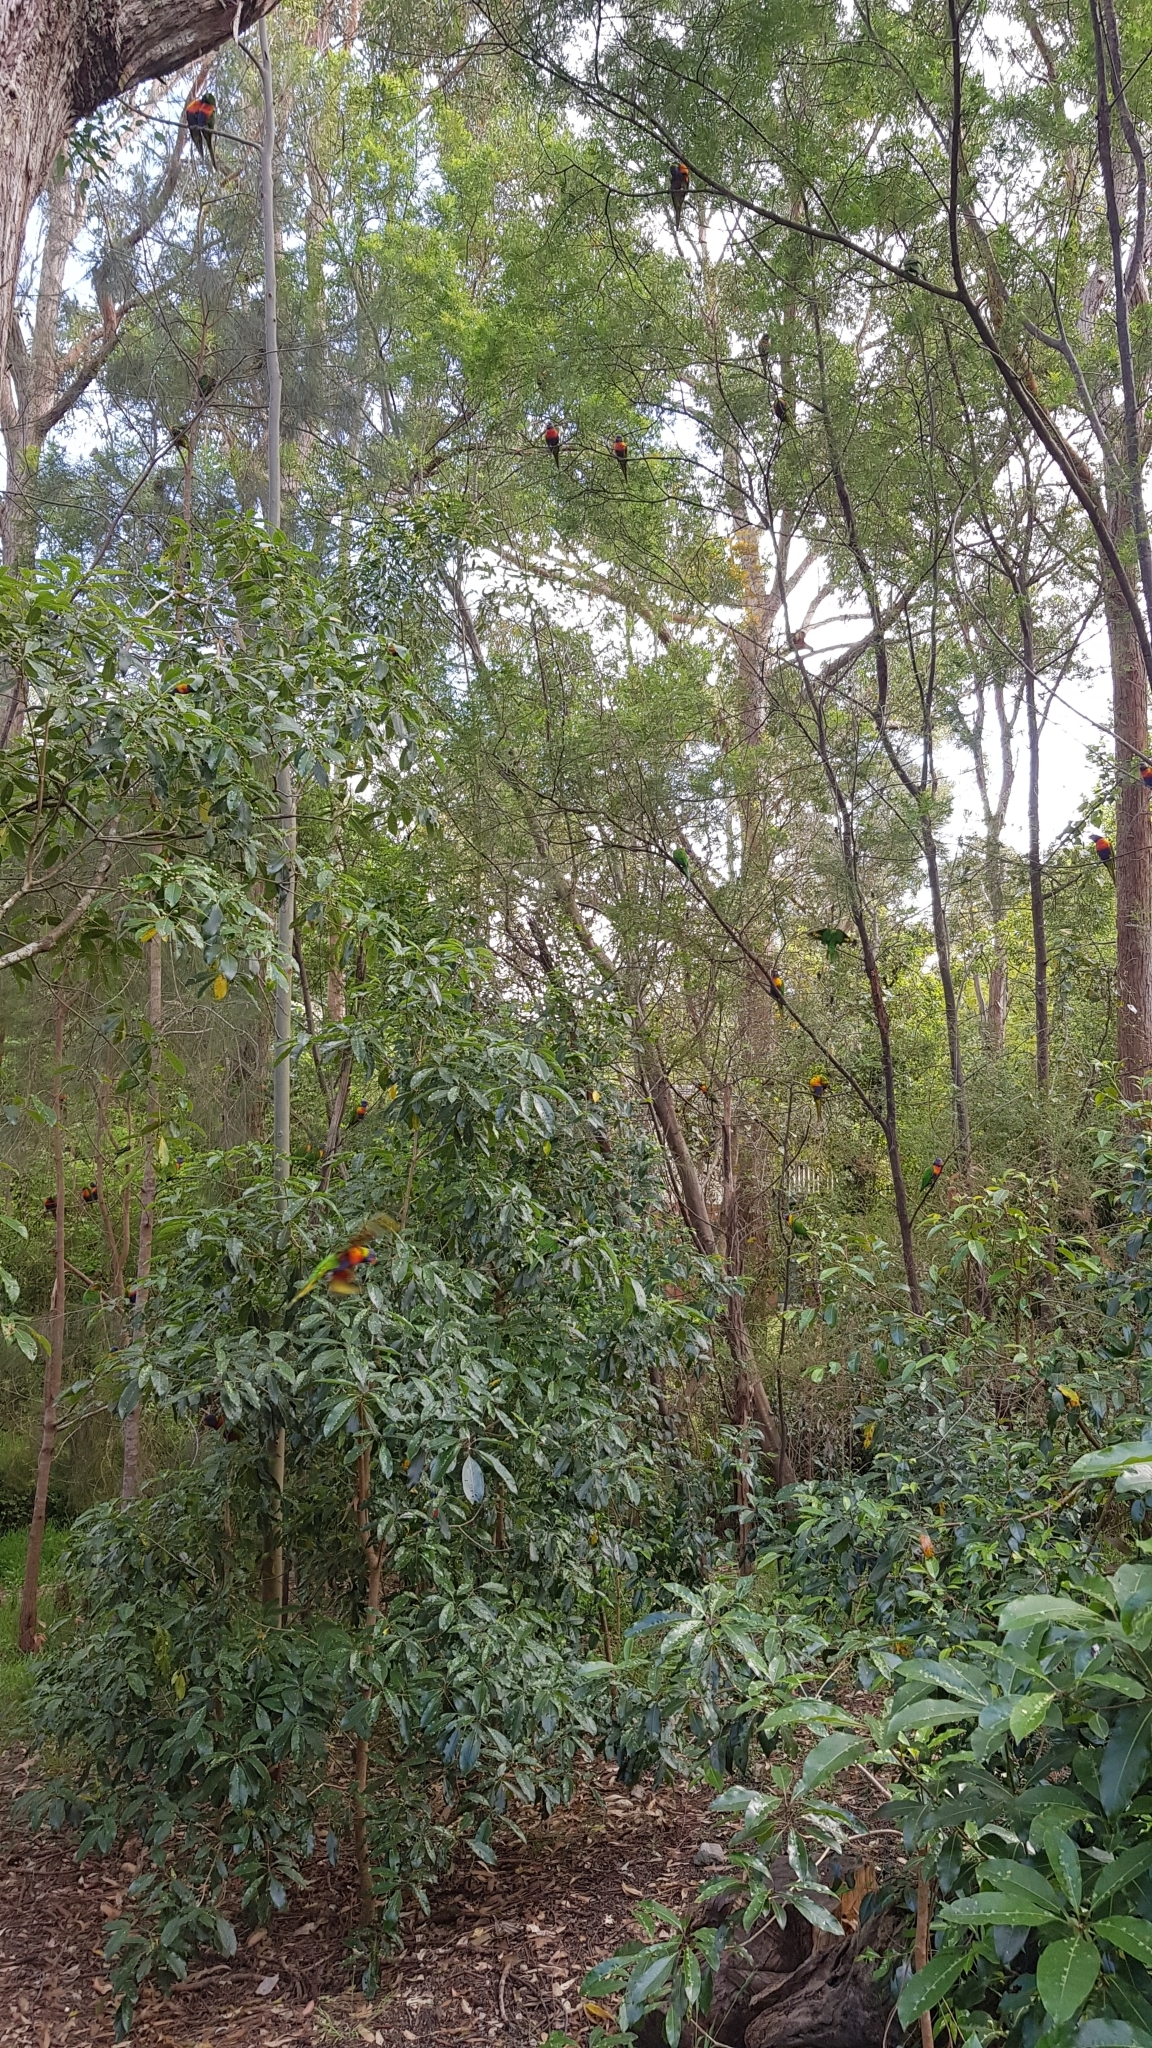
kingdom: Animalia
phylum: Chordata
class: Aves
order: Psittaciformes
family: Psittacidae
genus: Trichoglossus
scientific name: Trichoglossus haematodus
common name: Coconut lorikeet
